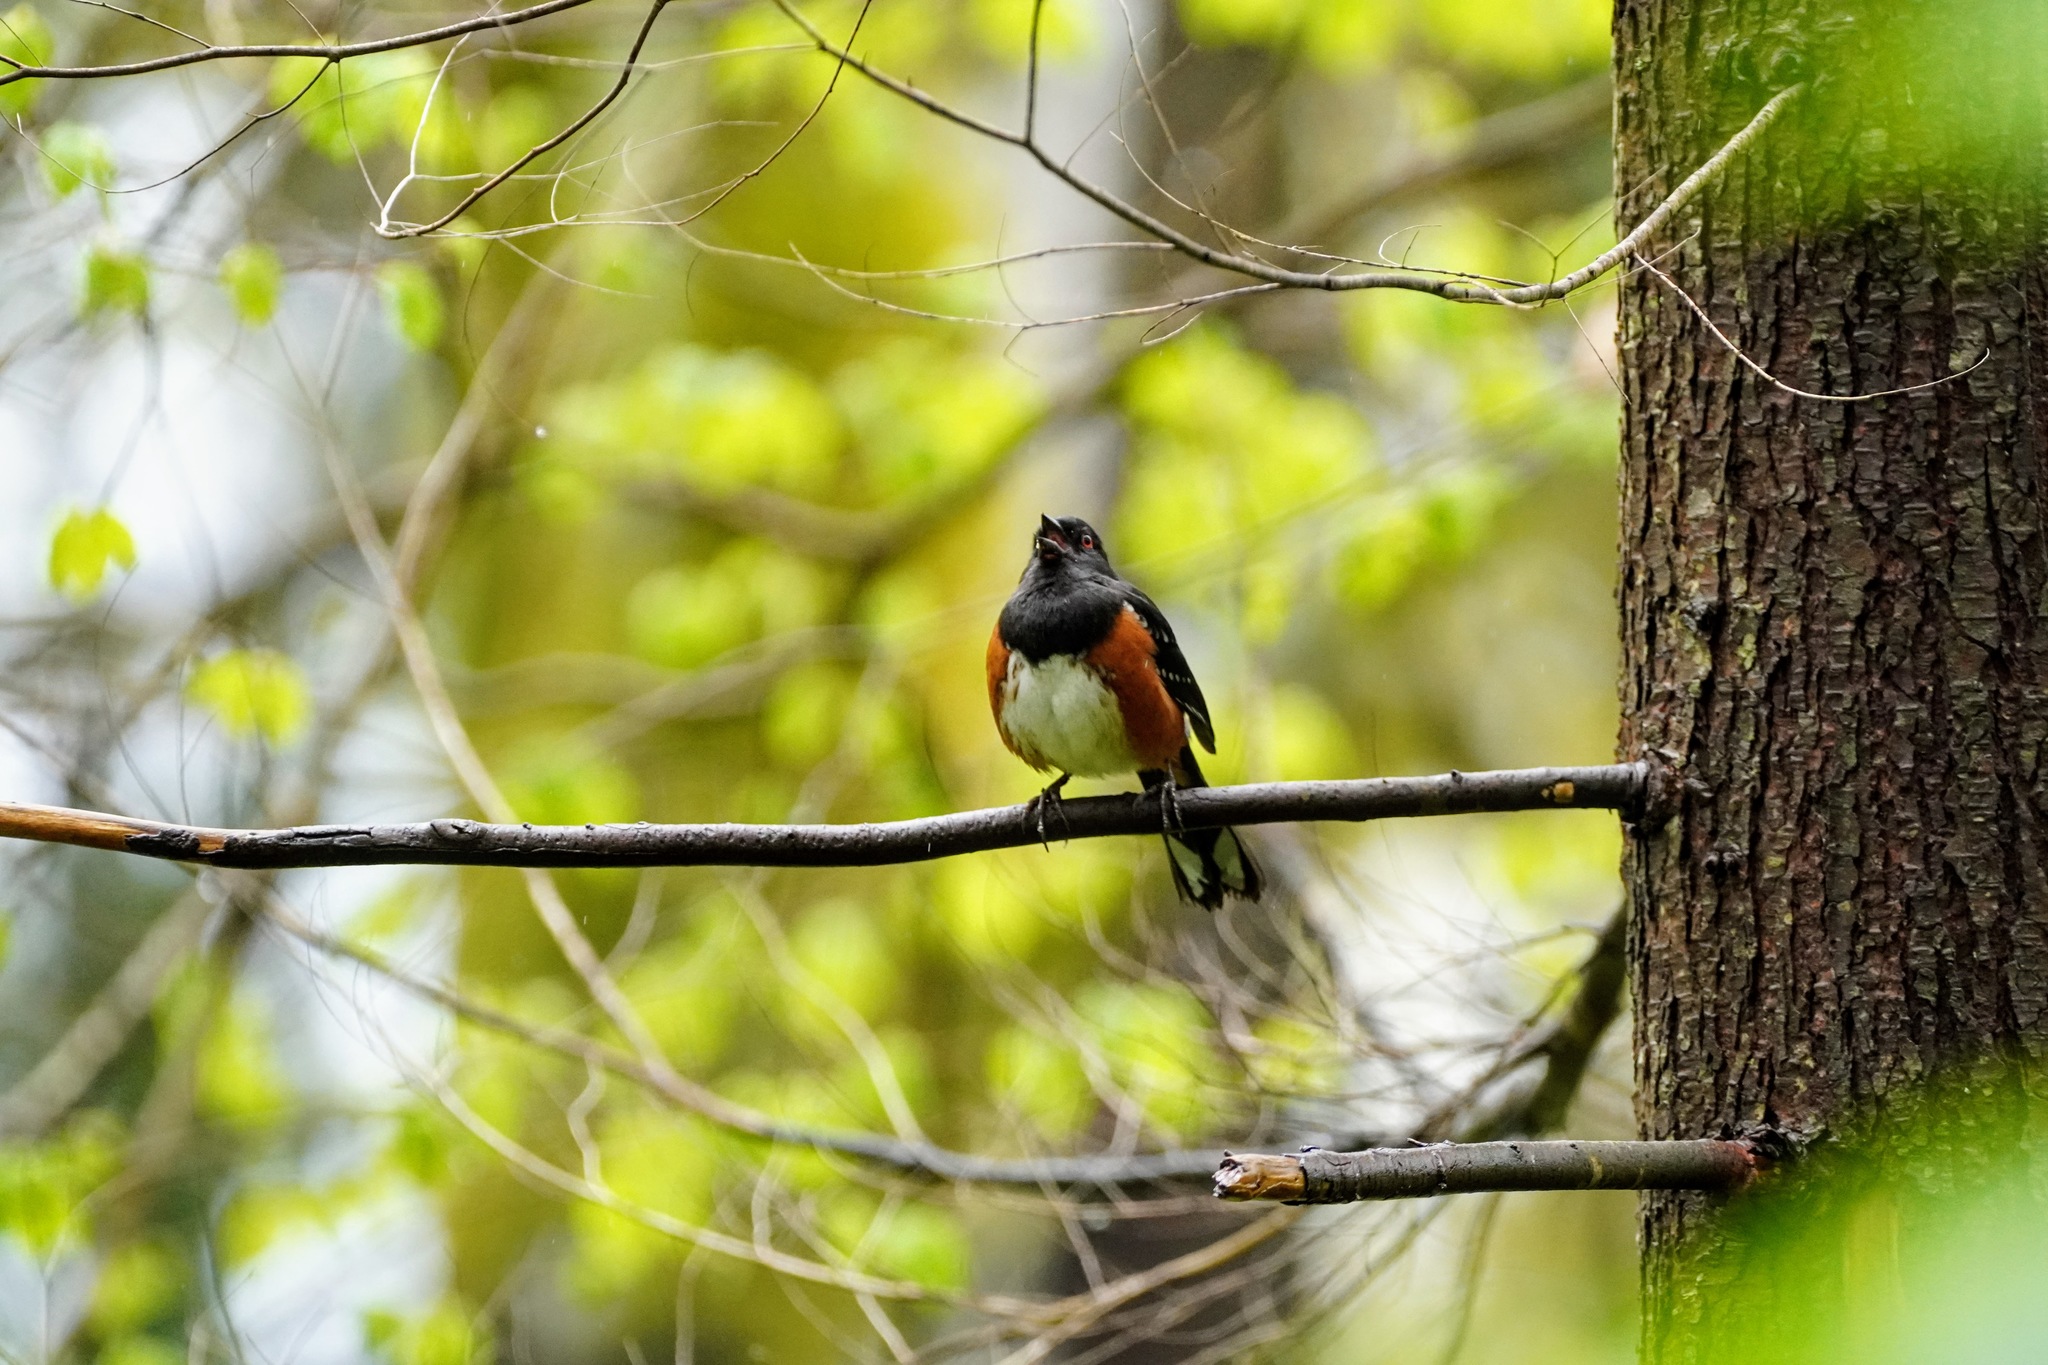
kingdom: Animalia
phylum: Chordata
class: Aves
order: Passeriformes
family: Passerellidae
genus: Pipilo
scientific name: Pipilo maculatus
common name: Spotted towhee
